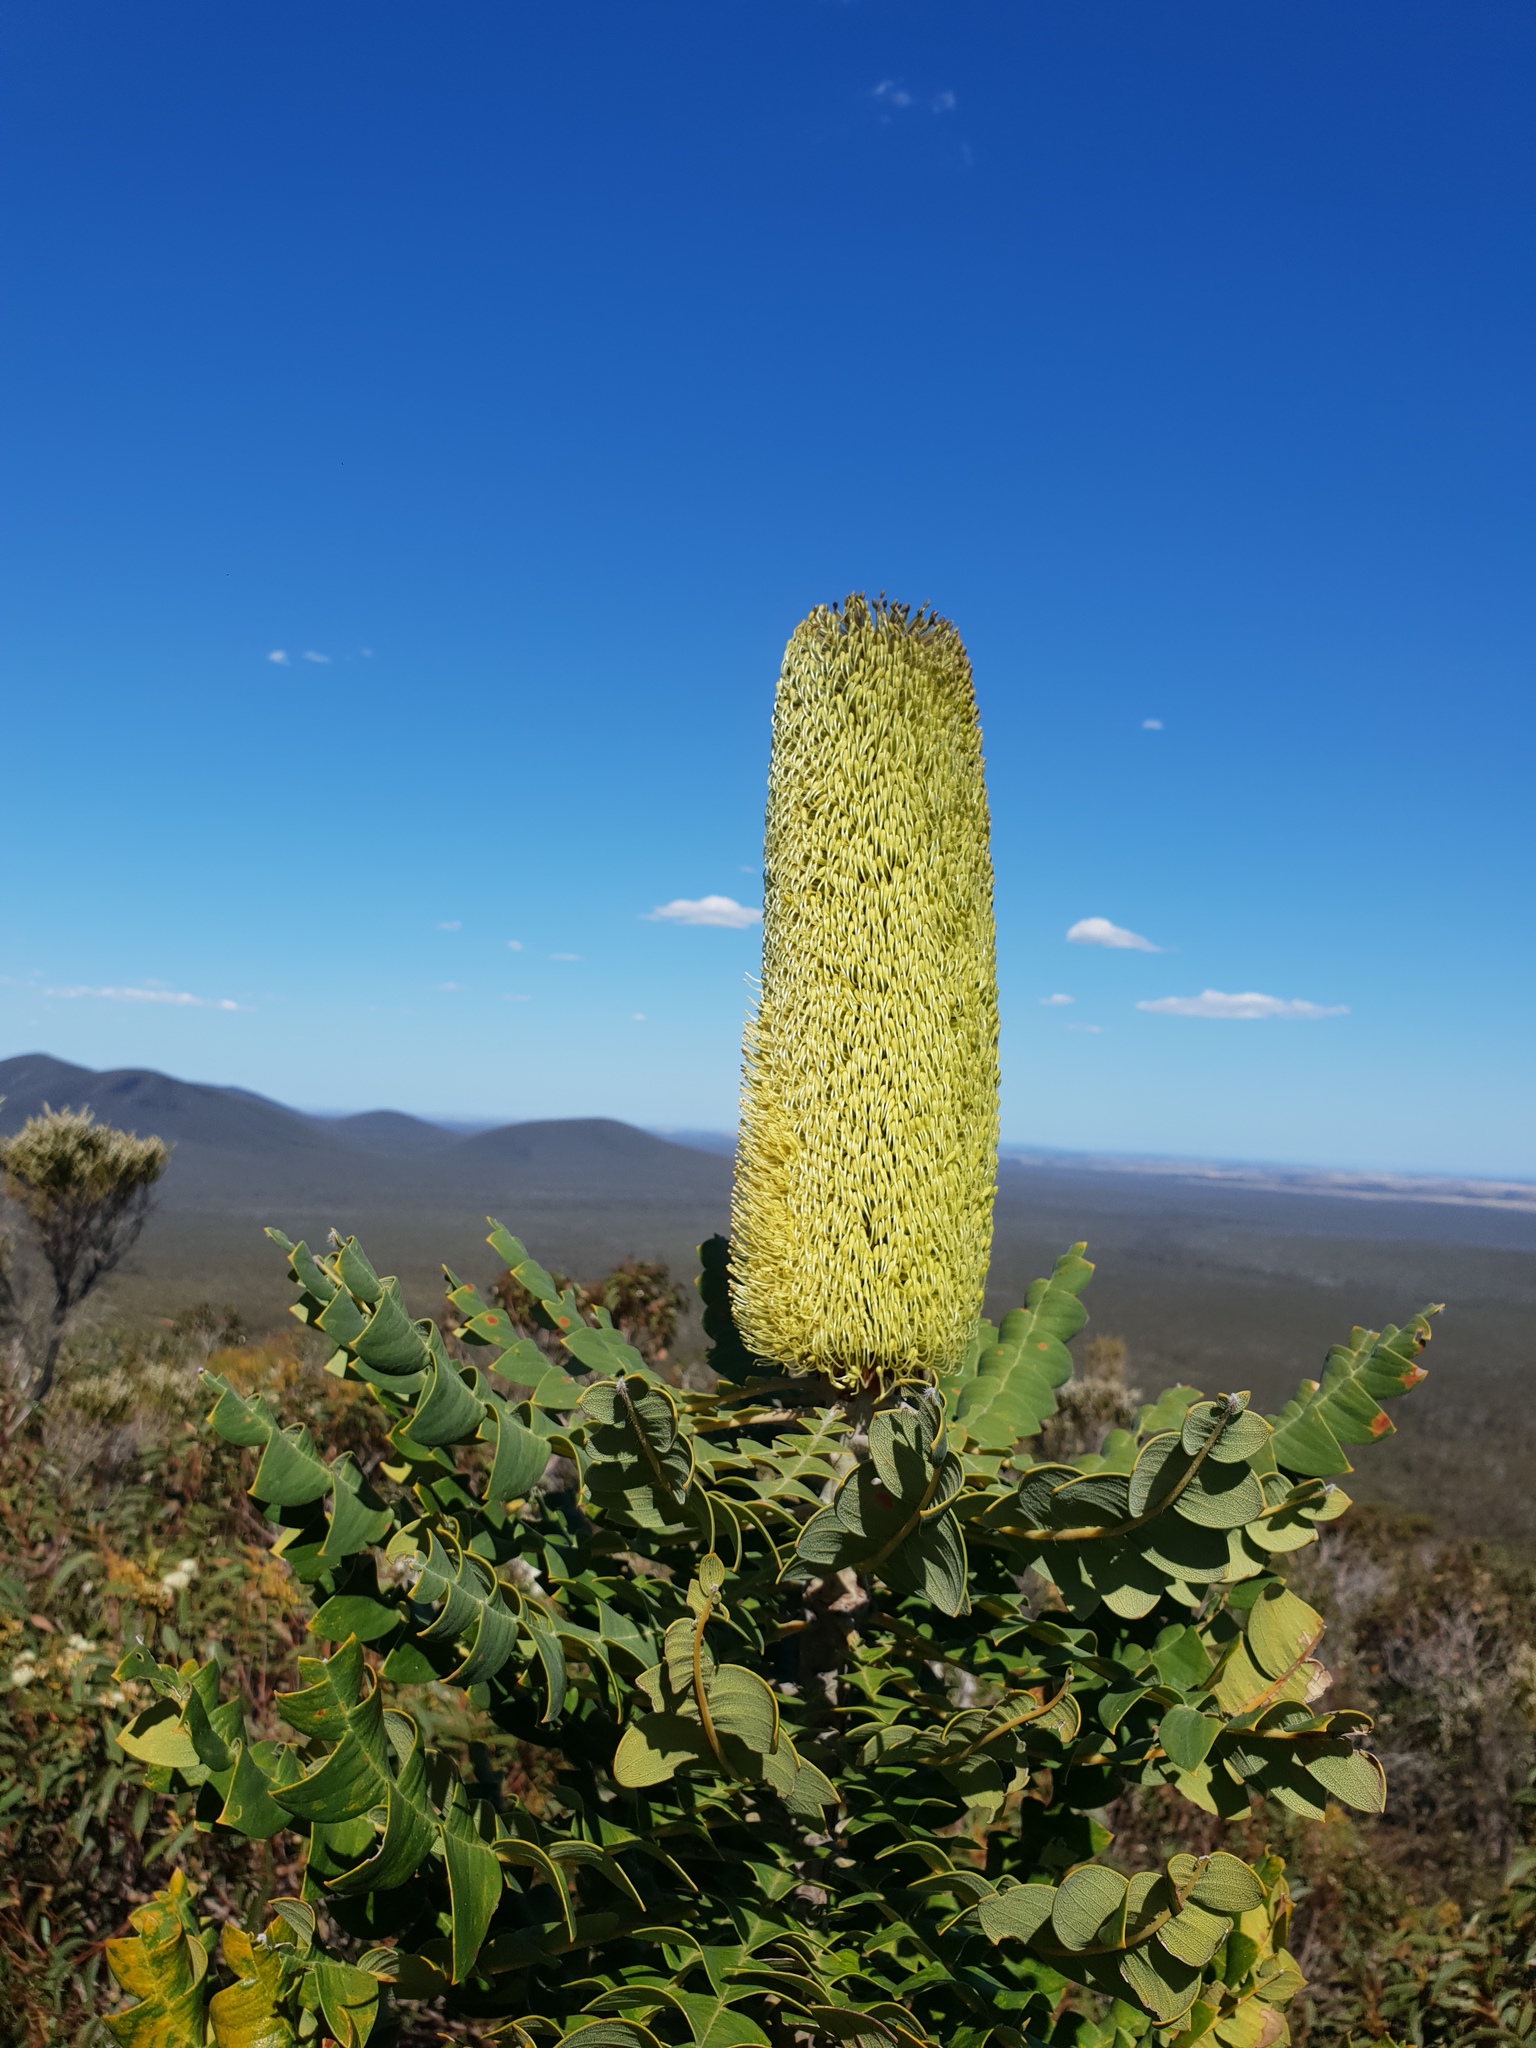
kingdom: Plantae
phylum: Tracheophyta
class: Magnoliopsida
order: Proteales
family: Proteaceae
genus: Banksia
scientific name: Banksia grandis
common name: Giant banksia
